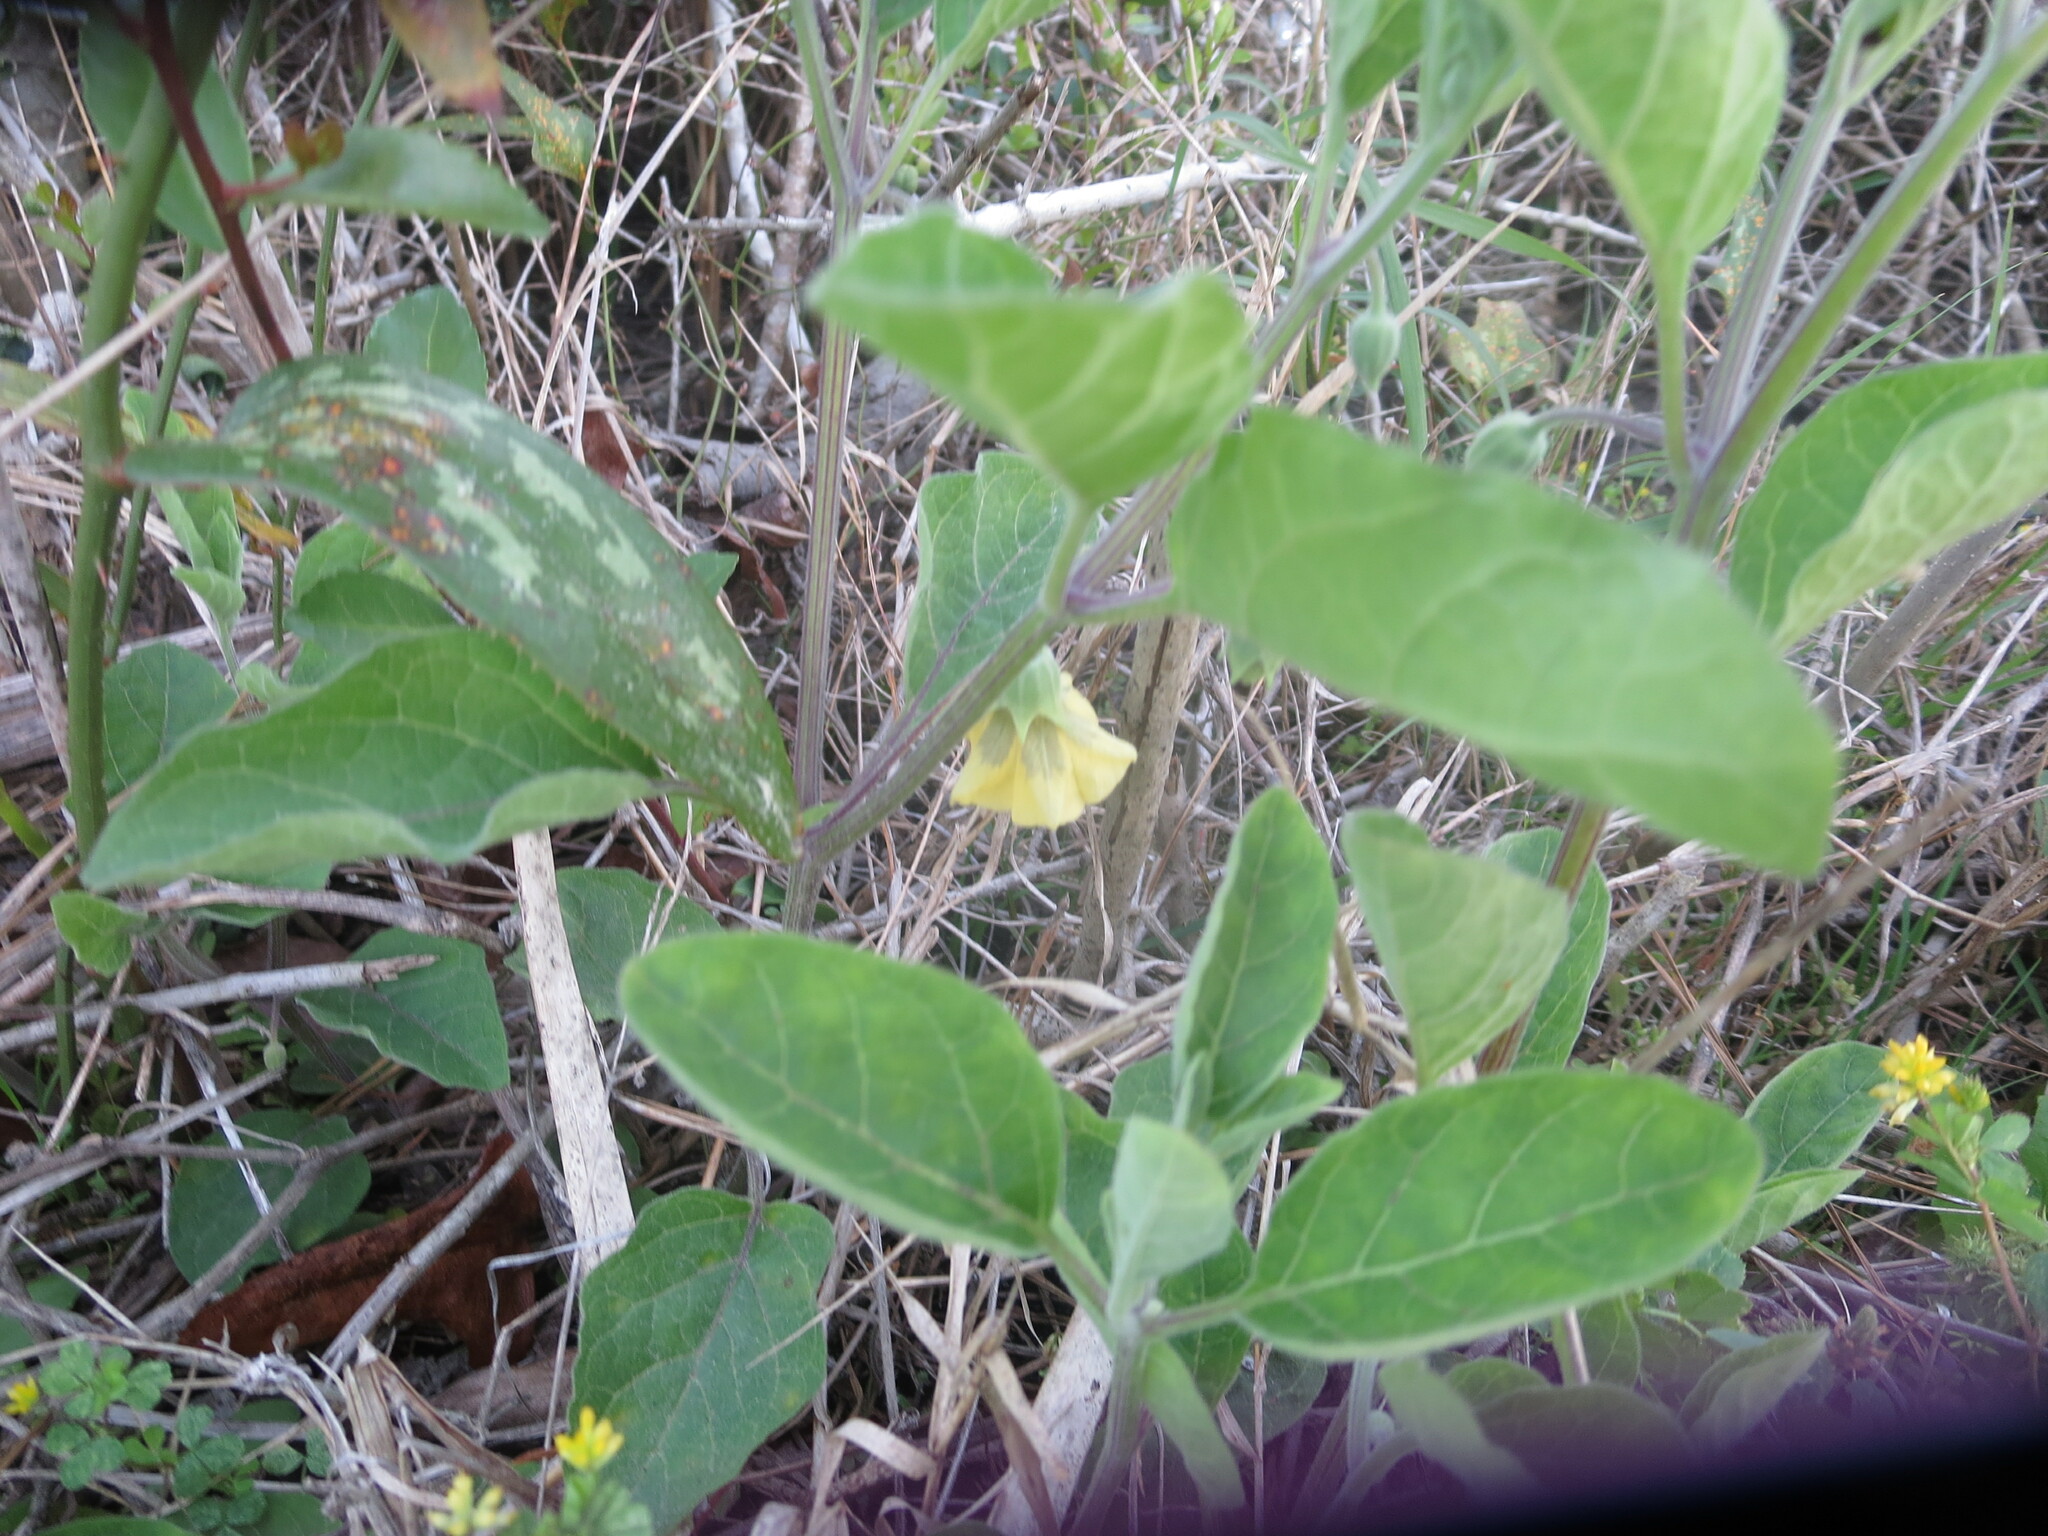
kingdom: Plantae
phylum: Tracheophyta
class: Magnoliopsida
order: Solanales
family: Solanaceae
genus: Physalis
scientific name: Physalis walteri
